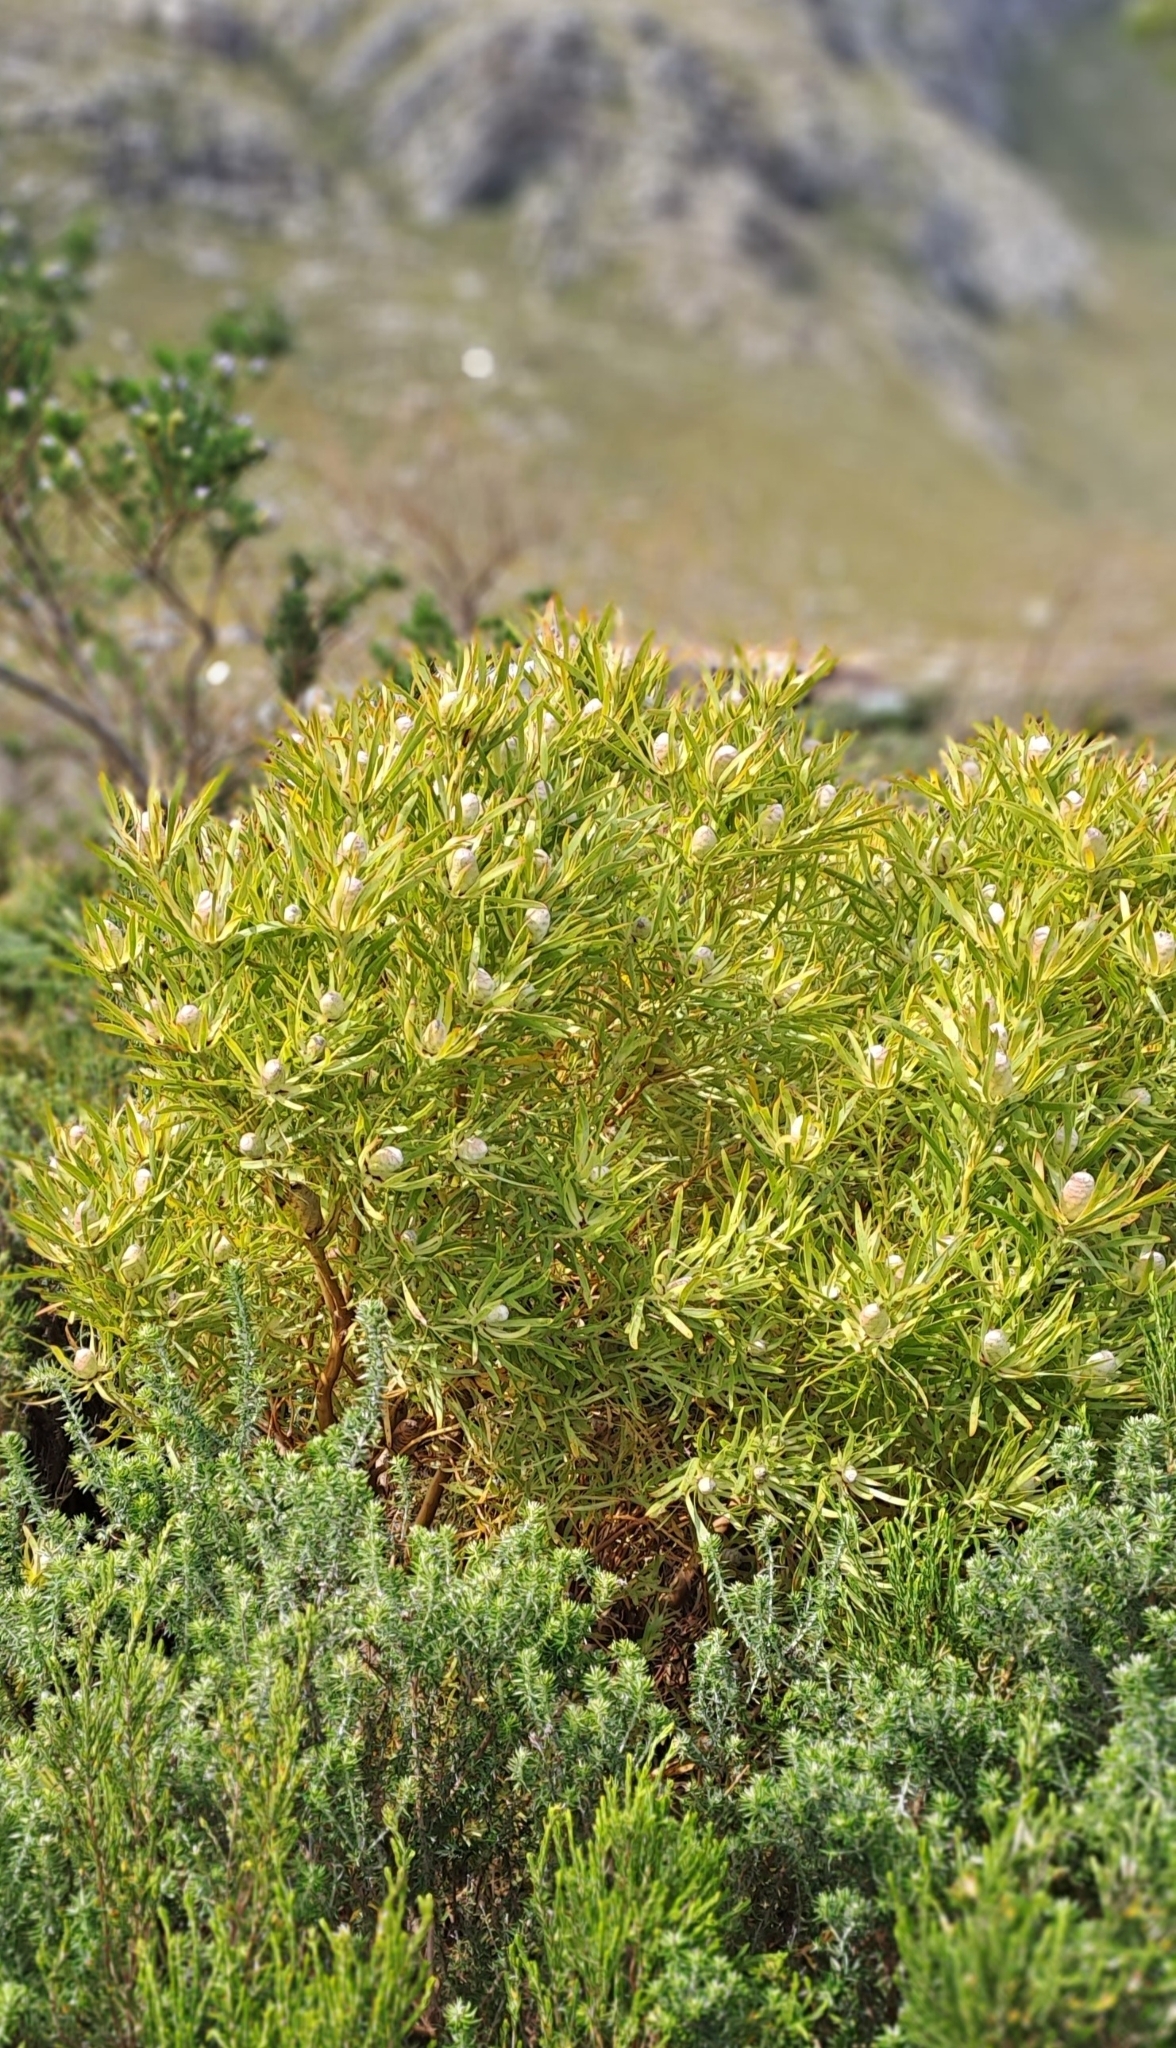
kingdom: Plantae
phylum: Tracheophyta
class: Magnoliopsida
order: Proteales
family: Proteaceae
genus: Leucadendron
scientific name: Leucadendron coniferum
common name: Dune conebush
